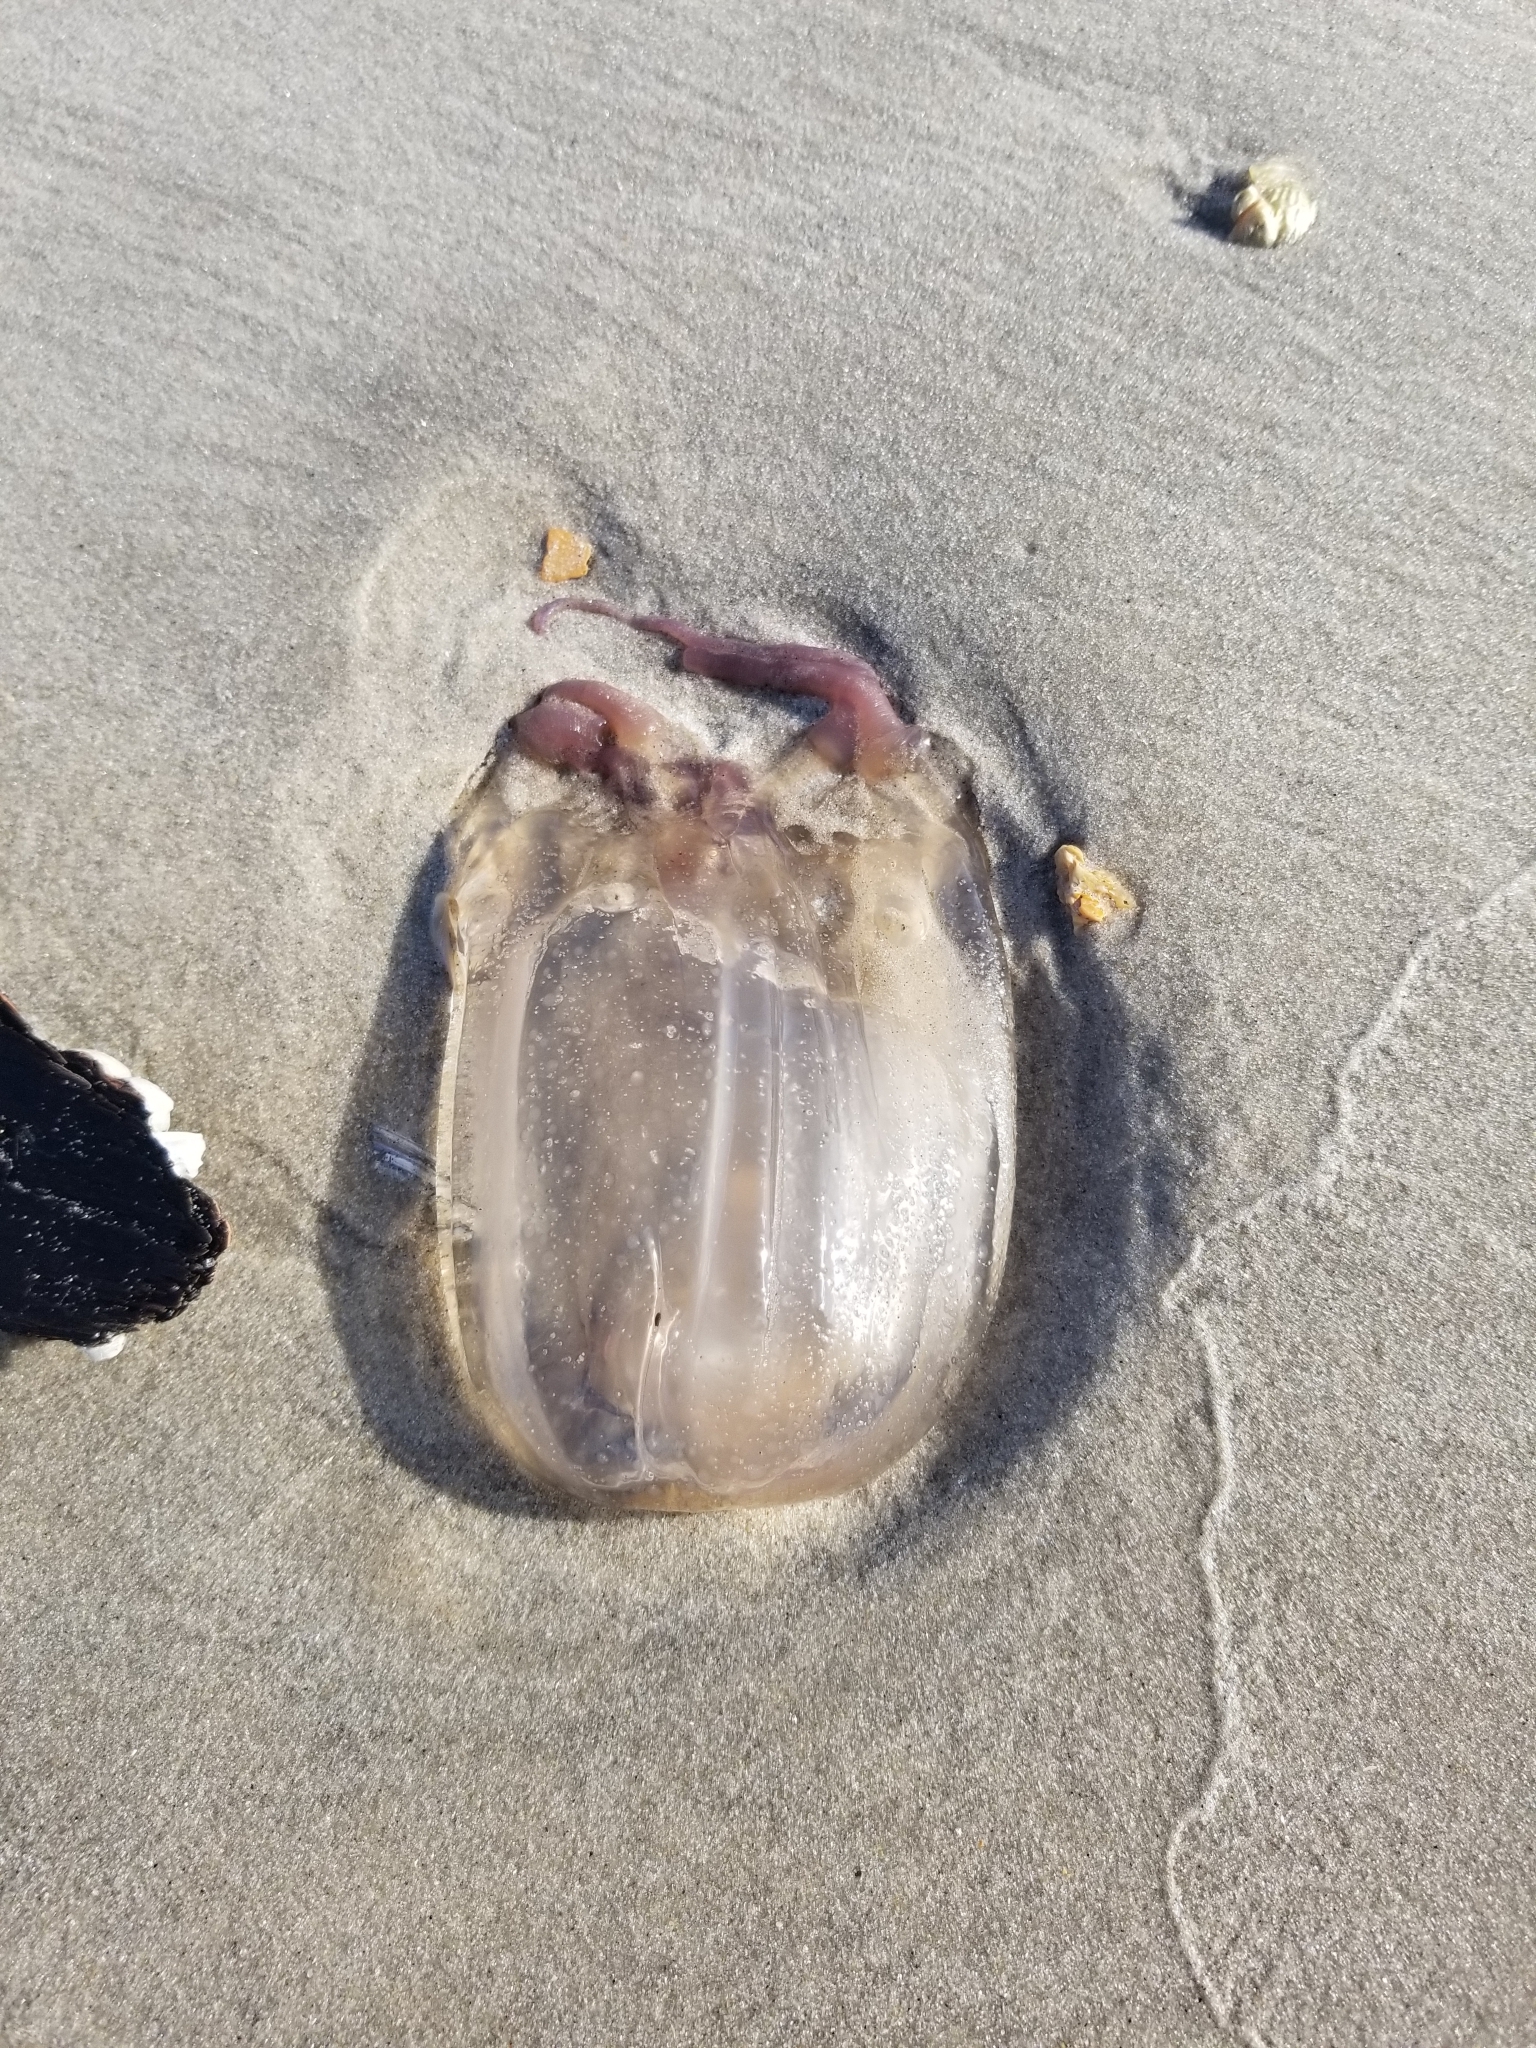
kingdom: Animalia
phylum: Cnidaria
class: Cubozoa
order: Carybdeida
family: Tamoyidae
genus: Tamoya
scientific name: Tamoya haplonema
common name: Box jelly
